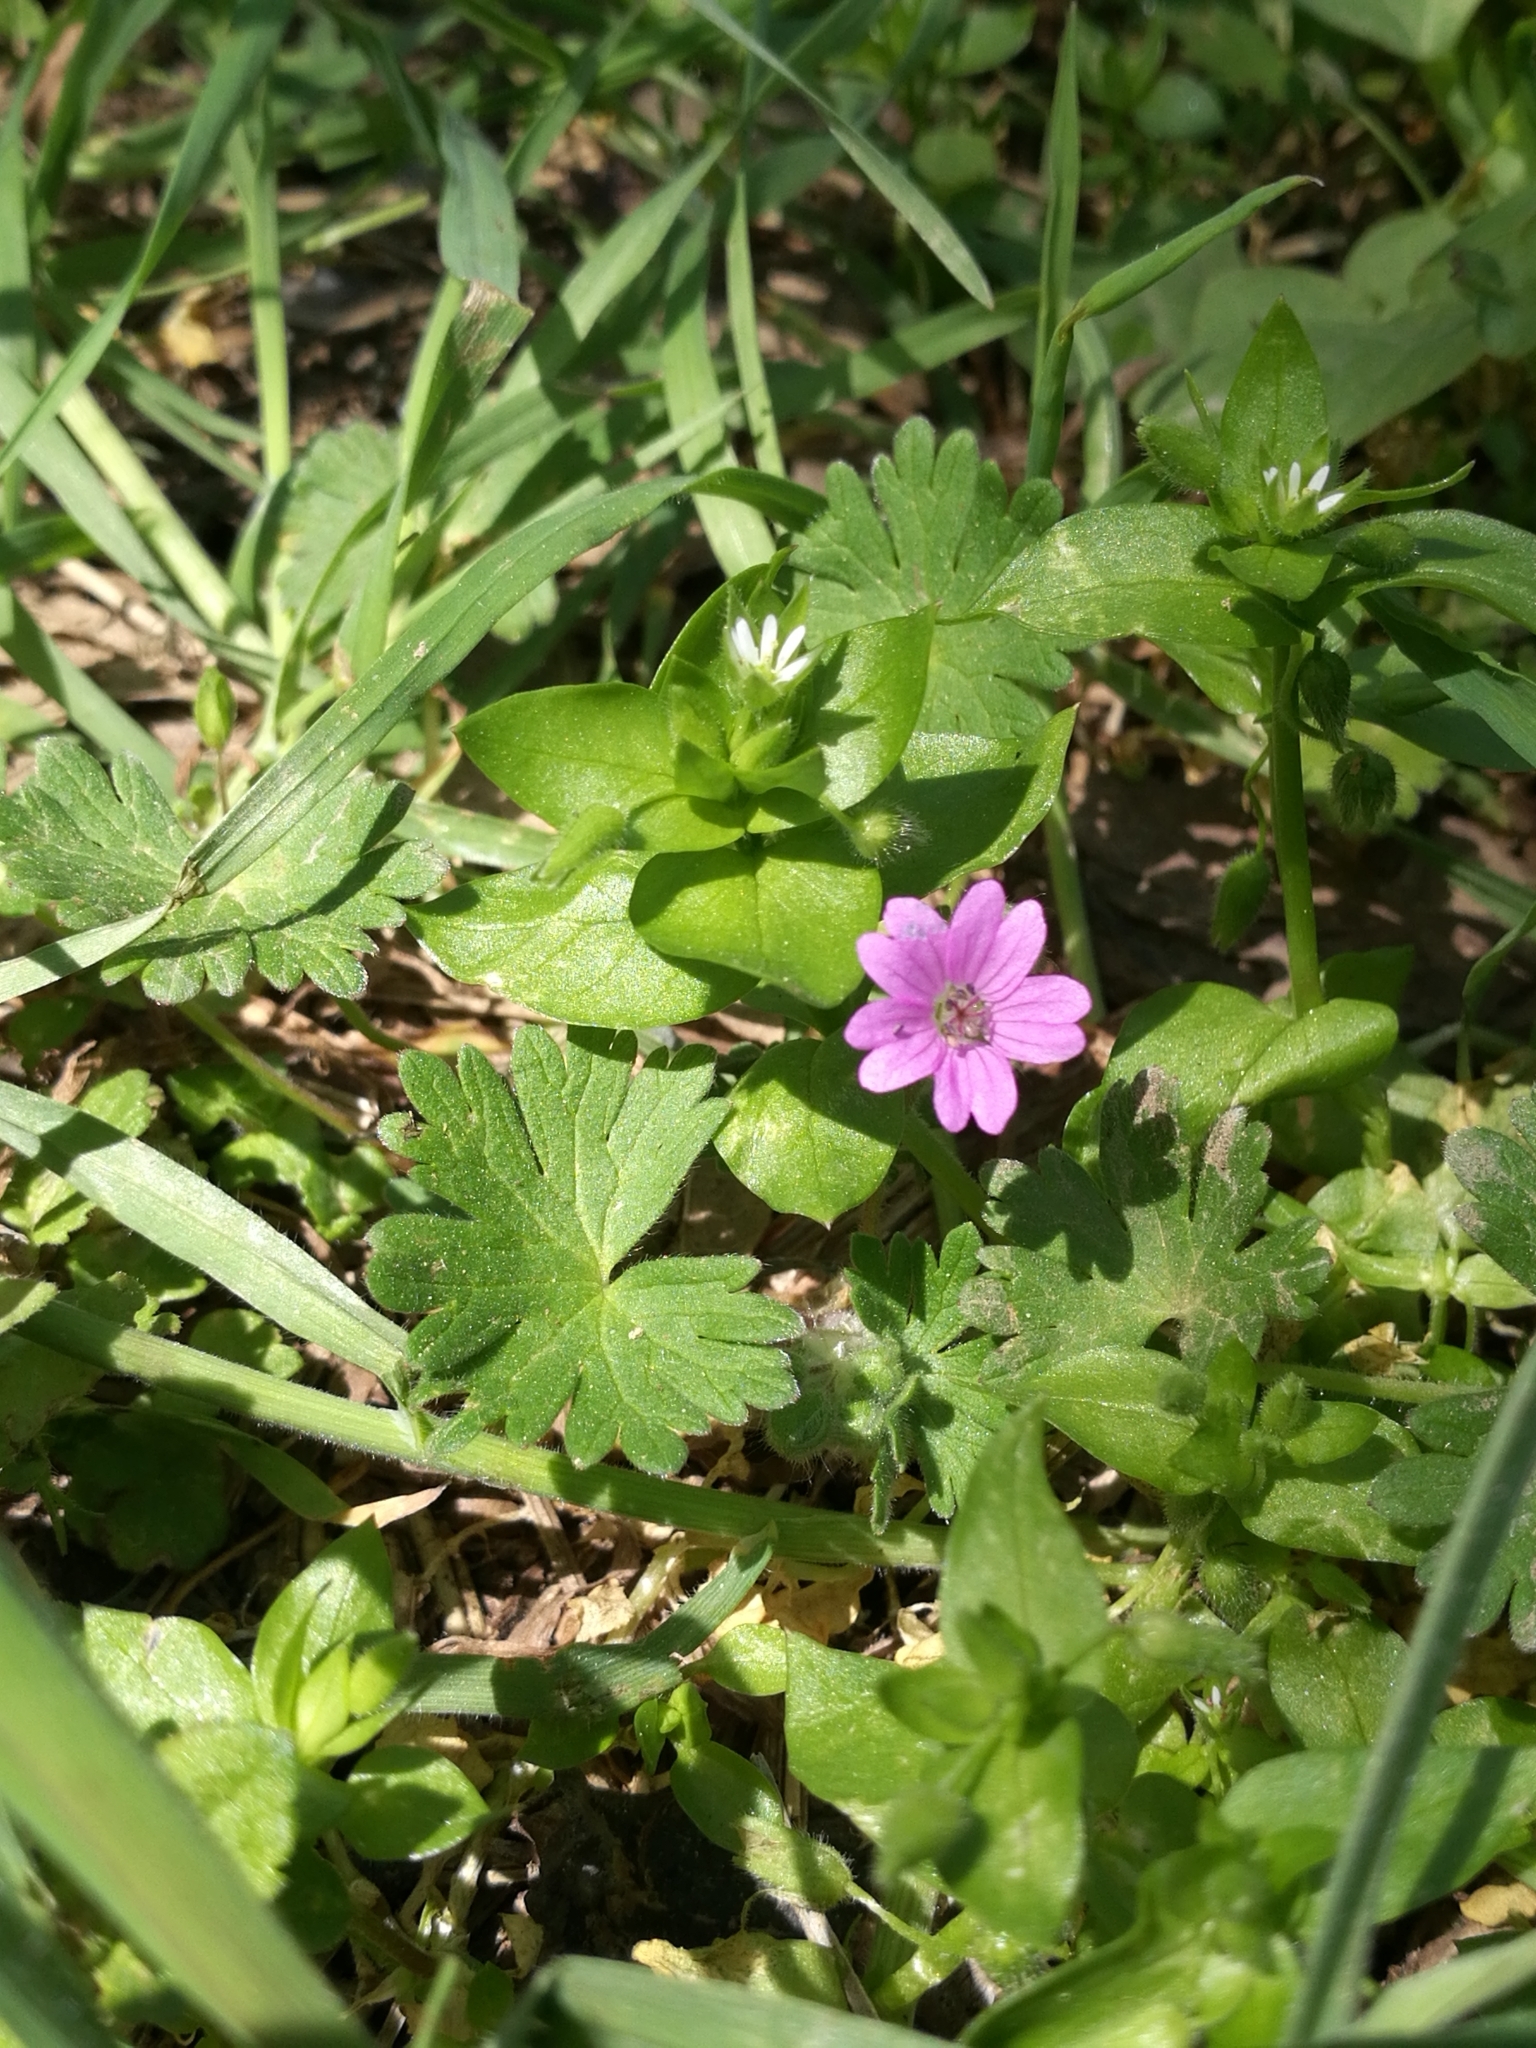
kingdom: Plantae
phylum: Tracheophyta
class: Magnoliopsida
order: Geraniales
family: Geraniaceae
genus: Geranium
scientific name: Geranium molle
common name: Dove's-foot crane's-bill
